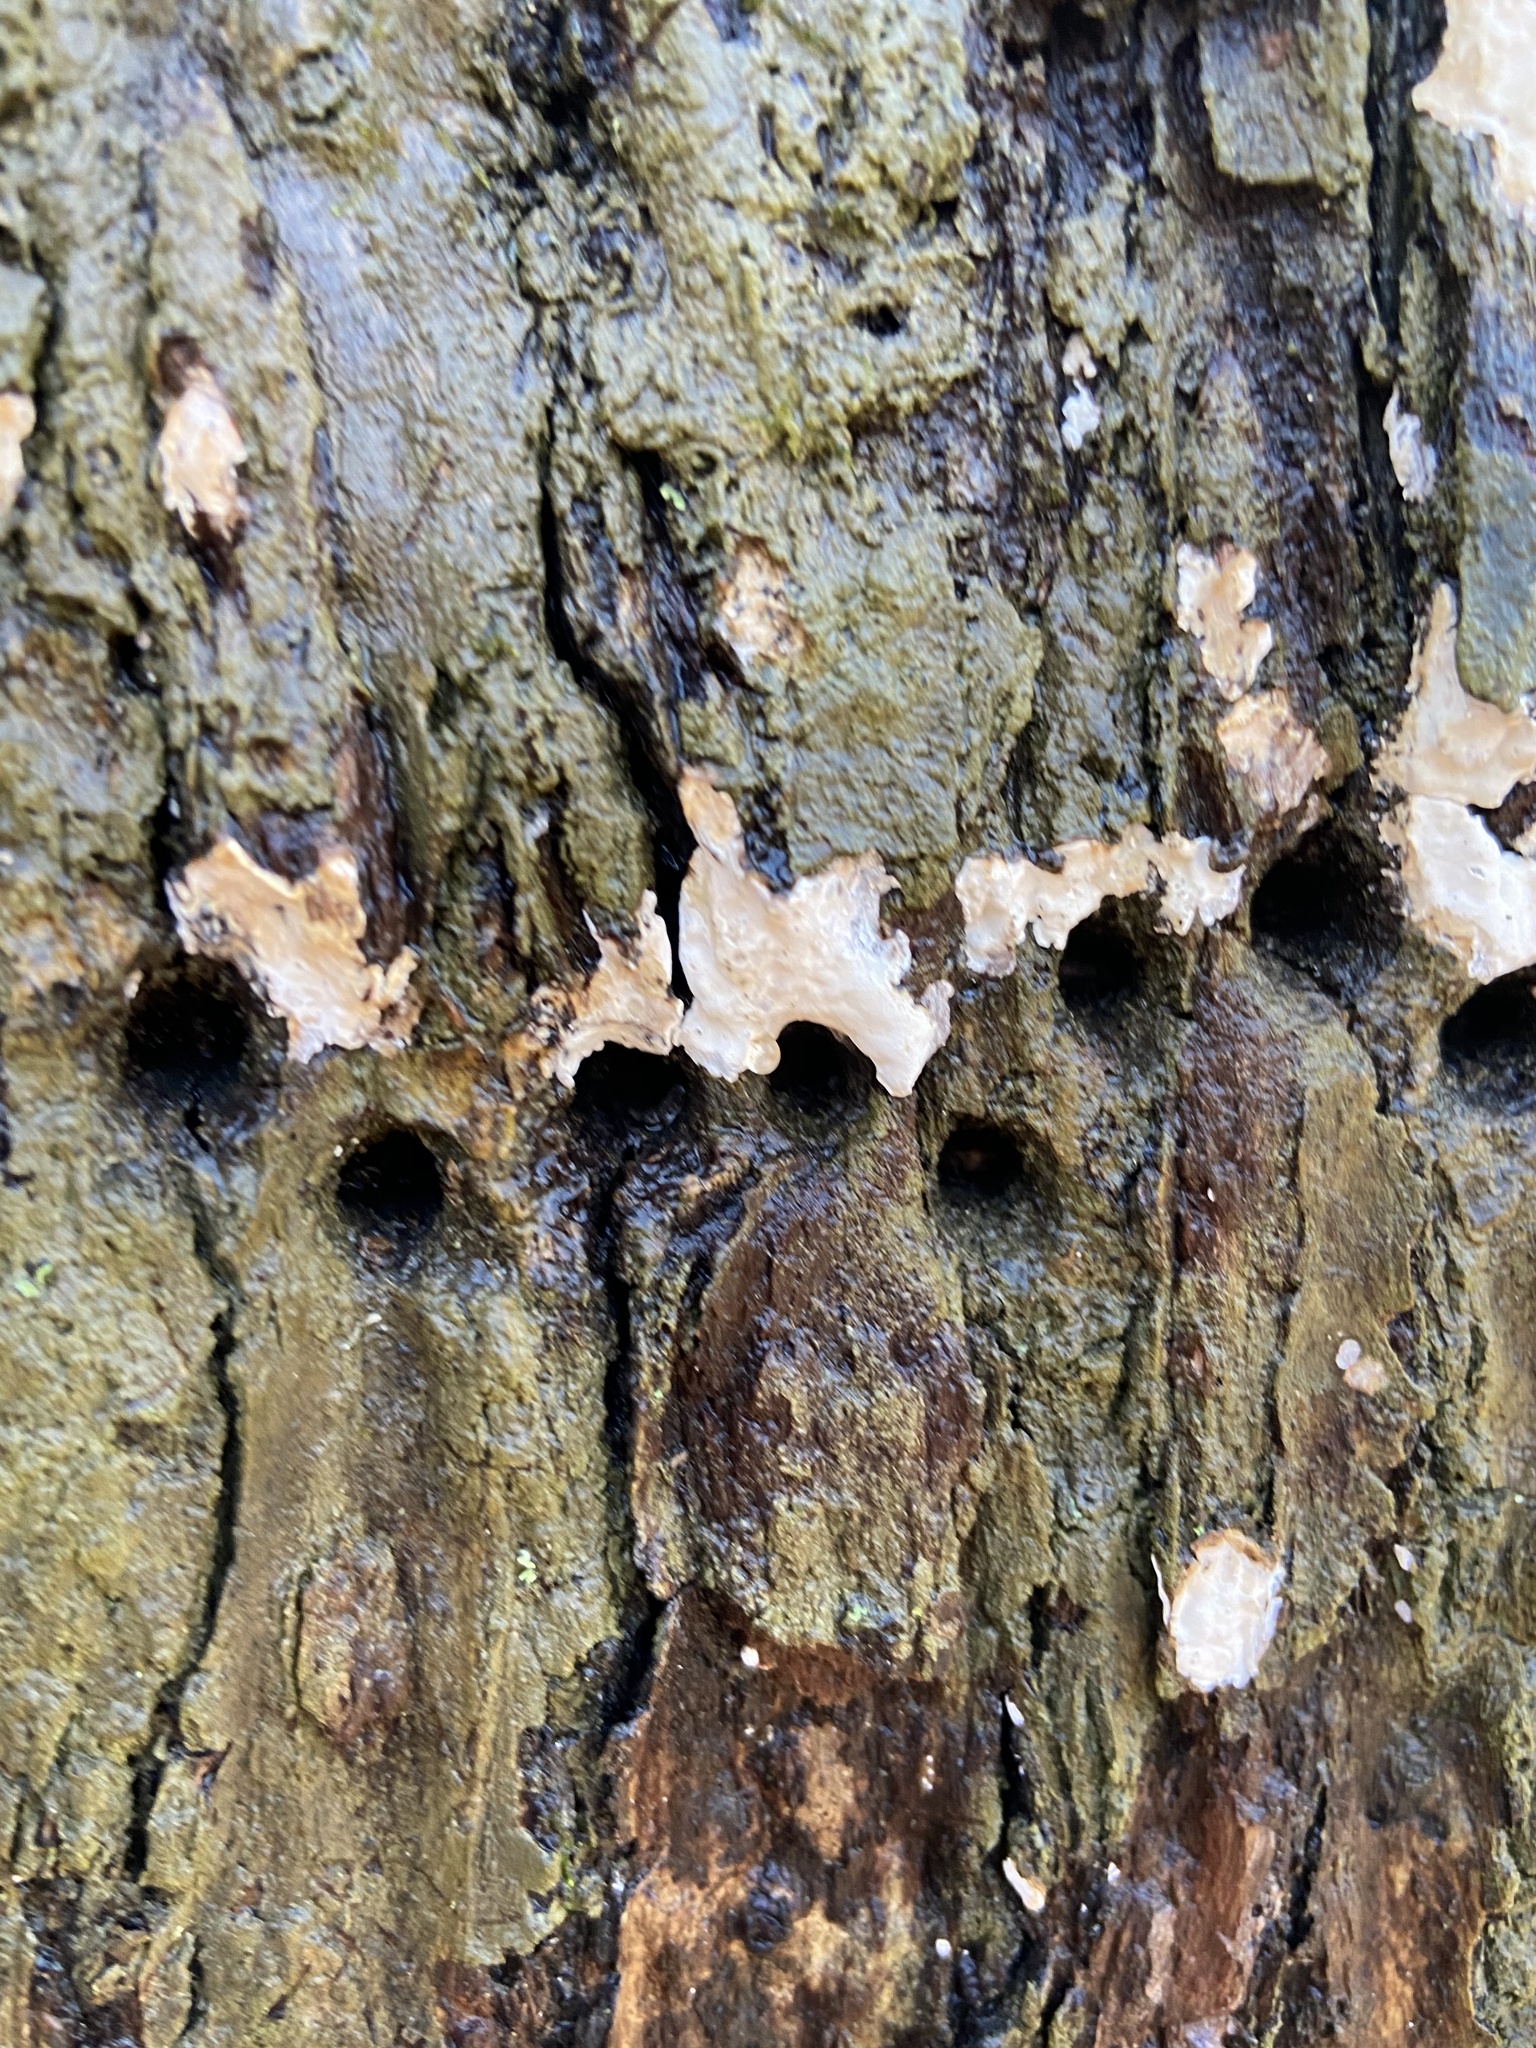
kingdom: Animalia
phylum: Chordata
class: Aves
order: Piciformes
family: Picidae
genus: Sphyrapicus
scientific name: Sphyrapicus varius
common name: Yellow-bellied sapsucker
